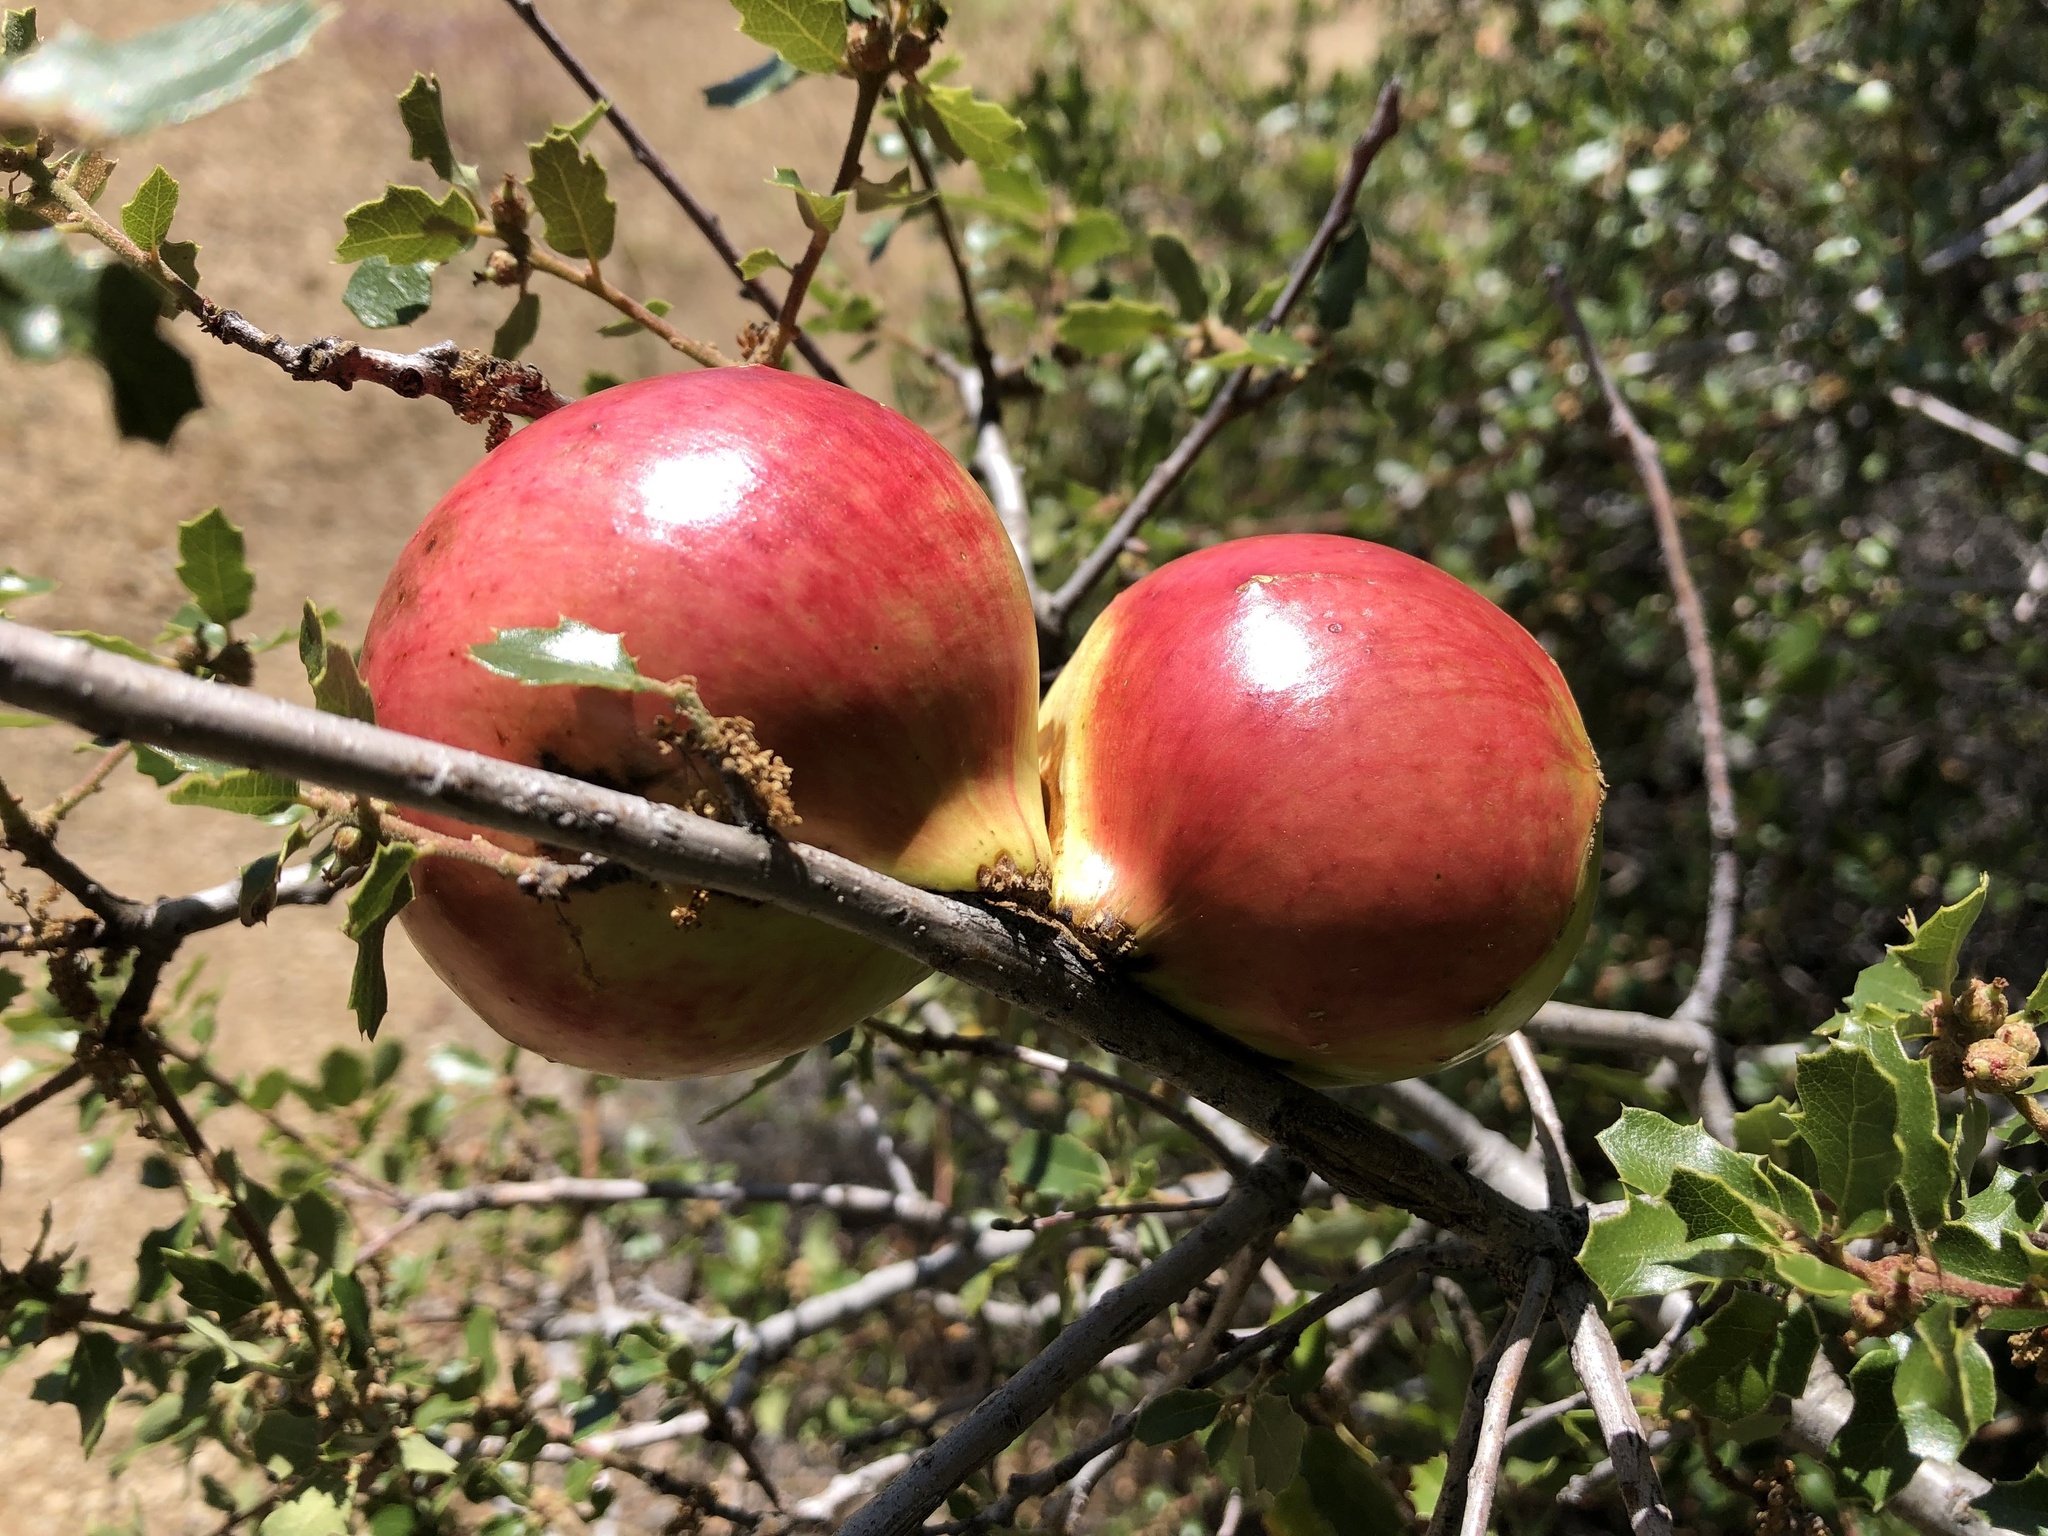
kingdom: Animalia
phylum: Arthropoda
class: Insecta
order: Hymenoptera
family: Cynipidae
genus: Andricus
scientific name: Andricus quercuscalifornicus
